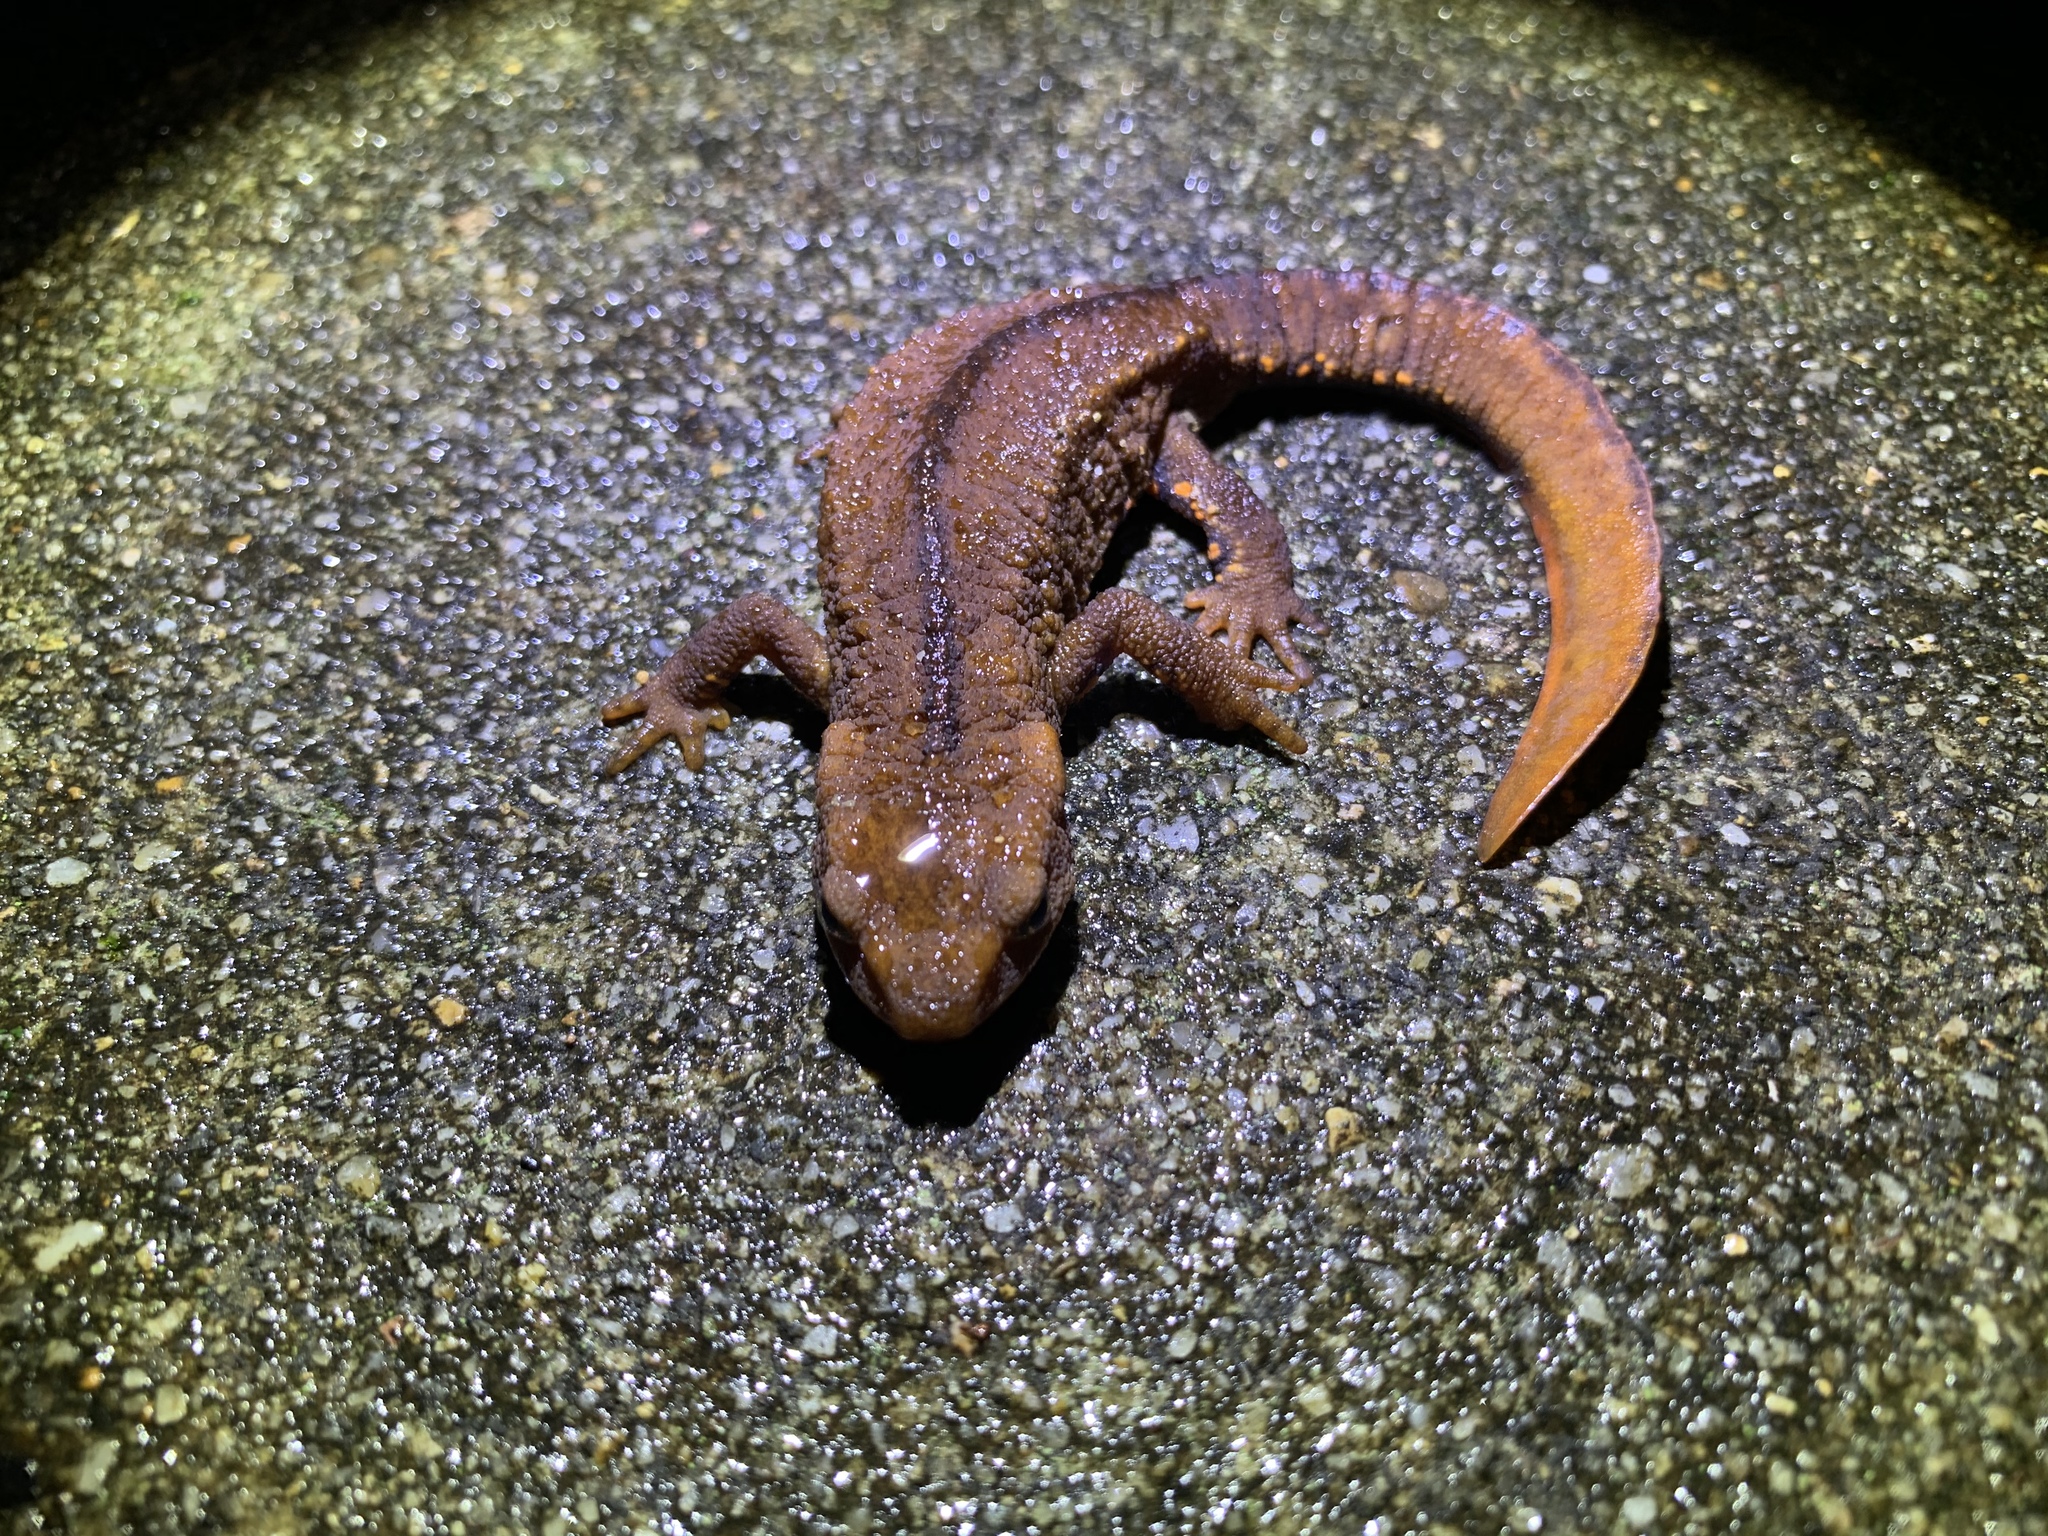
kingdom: Animalia
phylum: Chordata
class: Amphibia
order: Caudata
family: Salamandridae
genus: Paramesotriton
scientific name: Paramesotriton hongkongensis
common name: Hong kong warty newt
